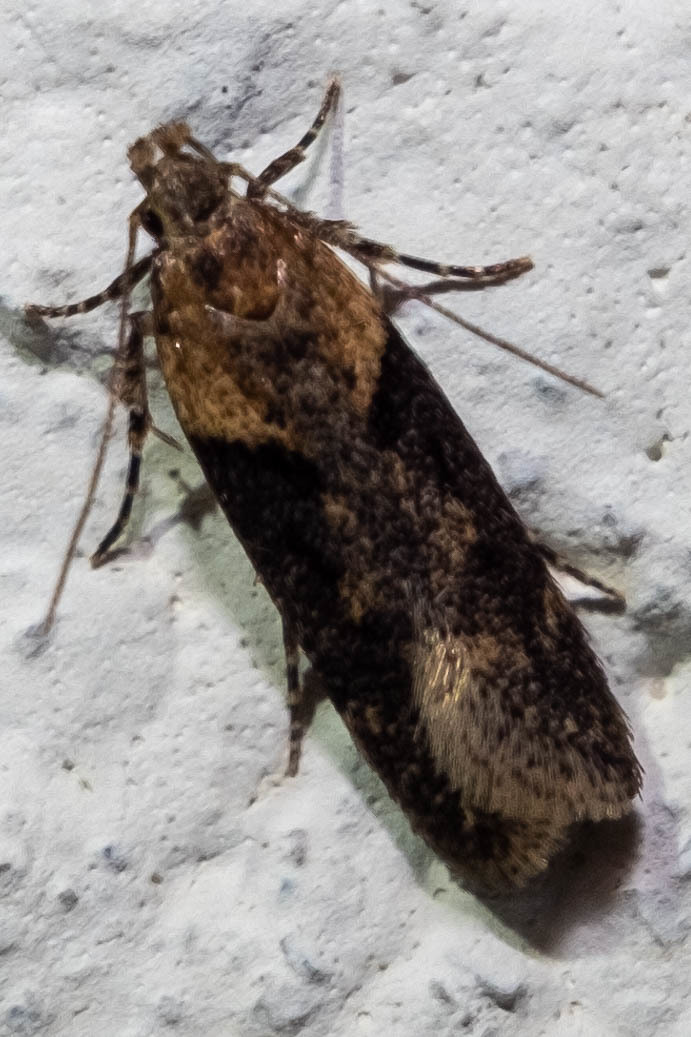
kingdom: Animalia
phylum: Arthropoda
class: Insecta
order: Lepidoptera
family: Gelechiidae
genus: Chionodes
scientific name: Chionodes mediofuscella
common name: Black-smudged chionodes moth
